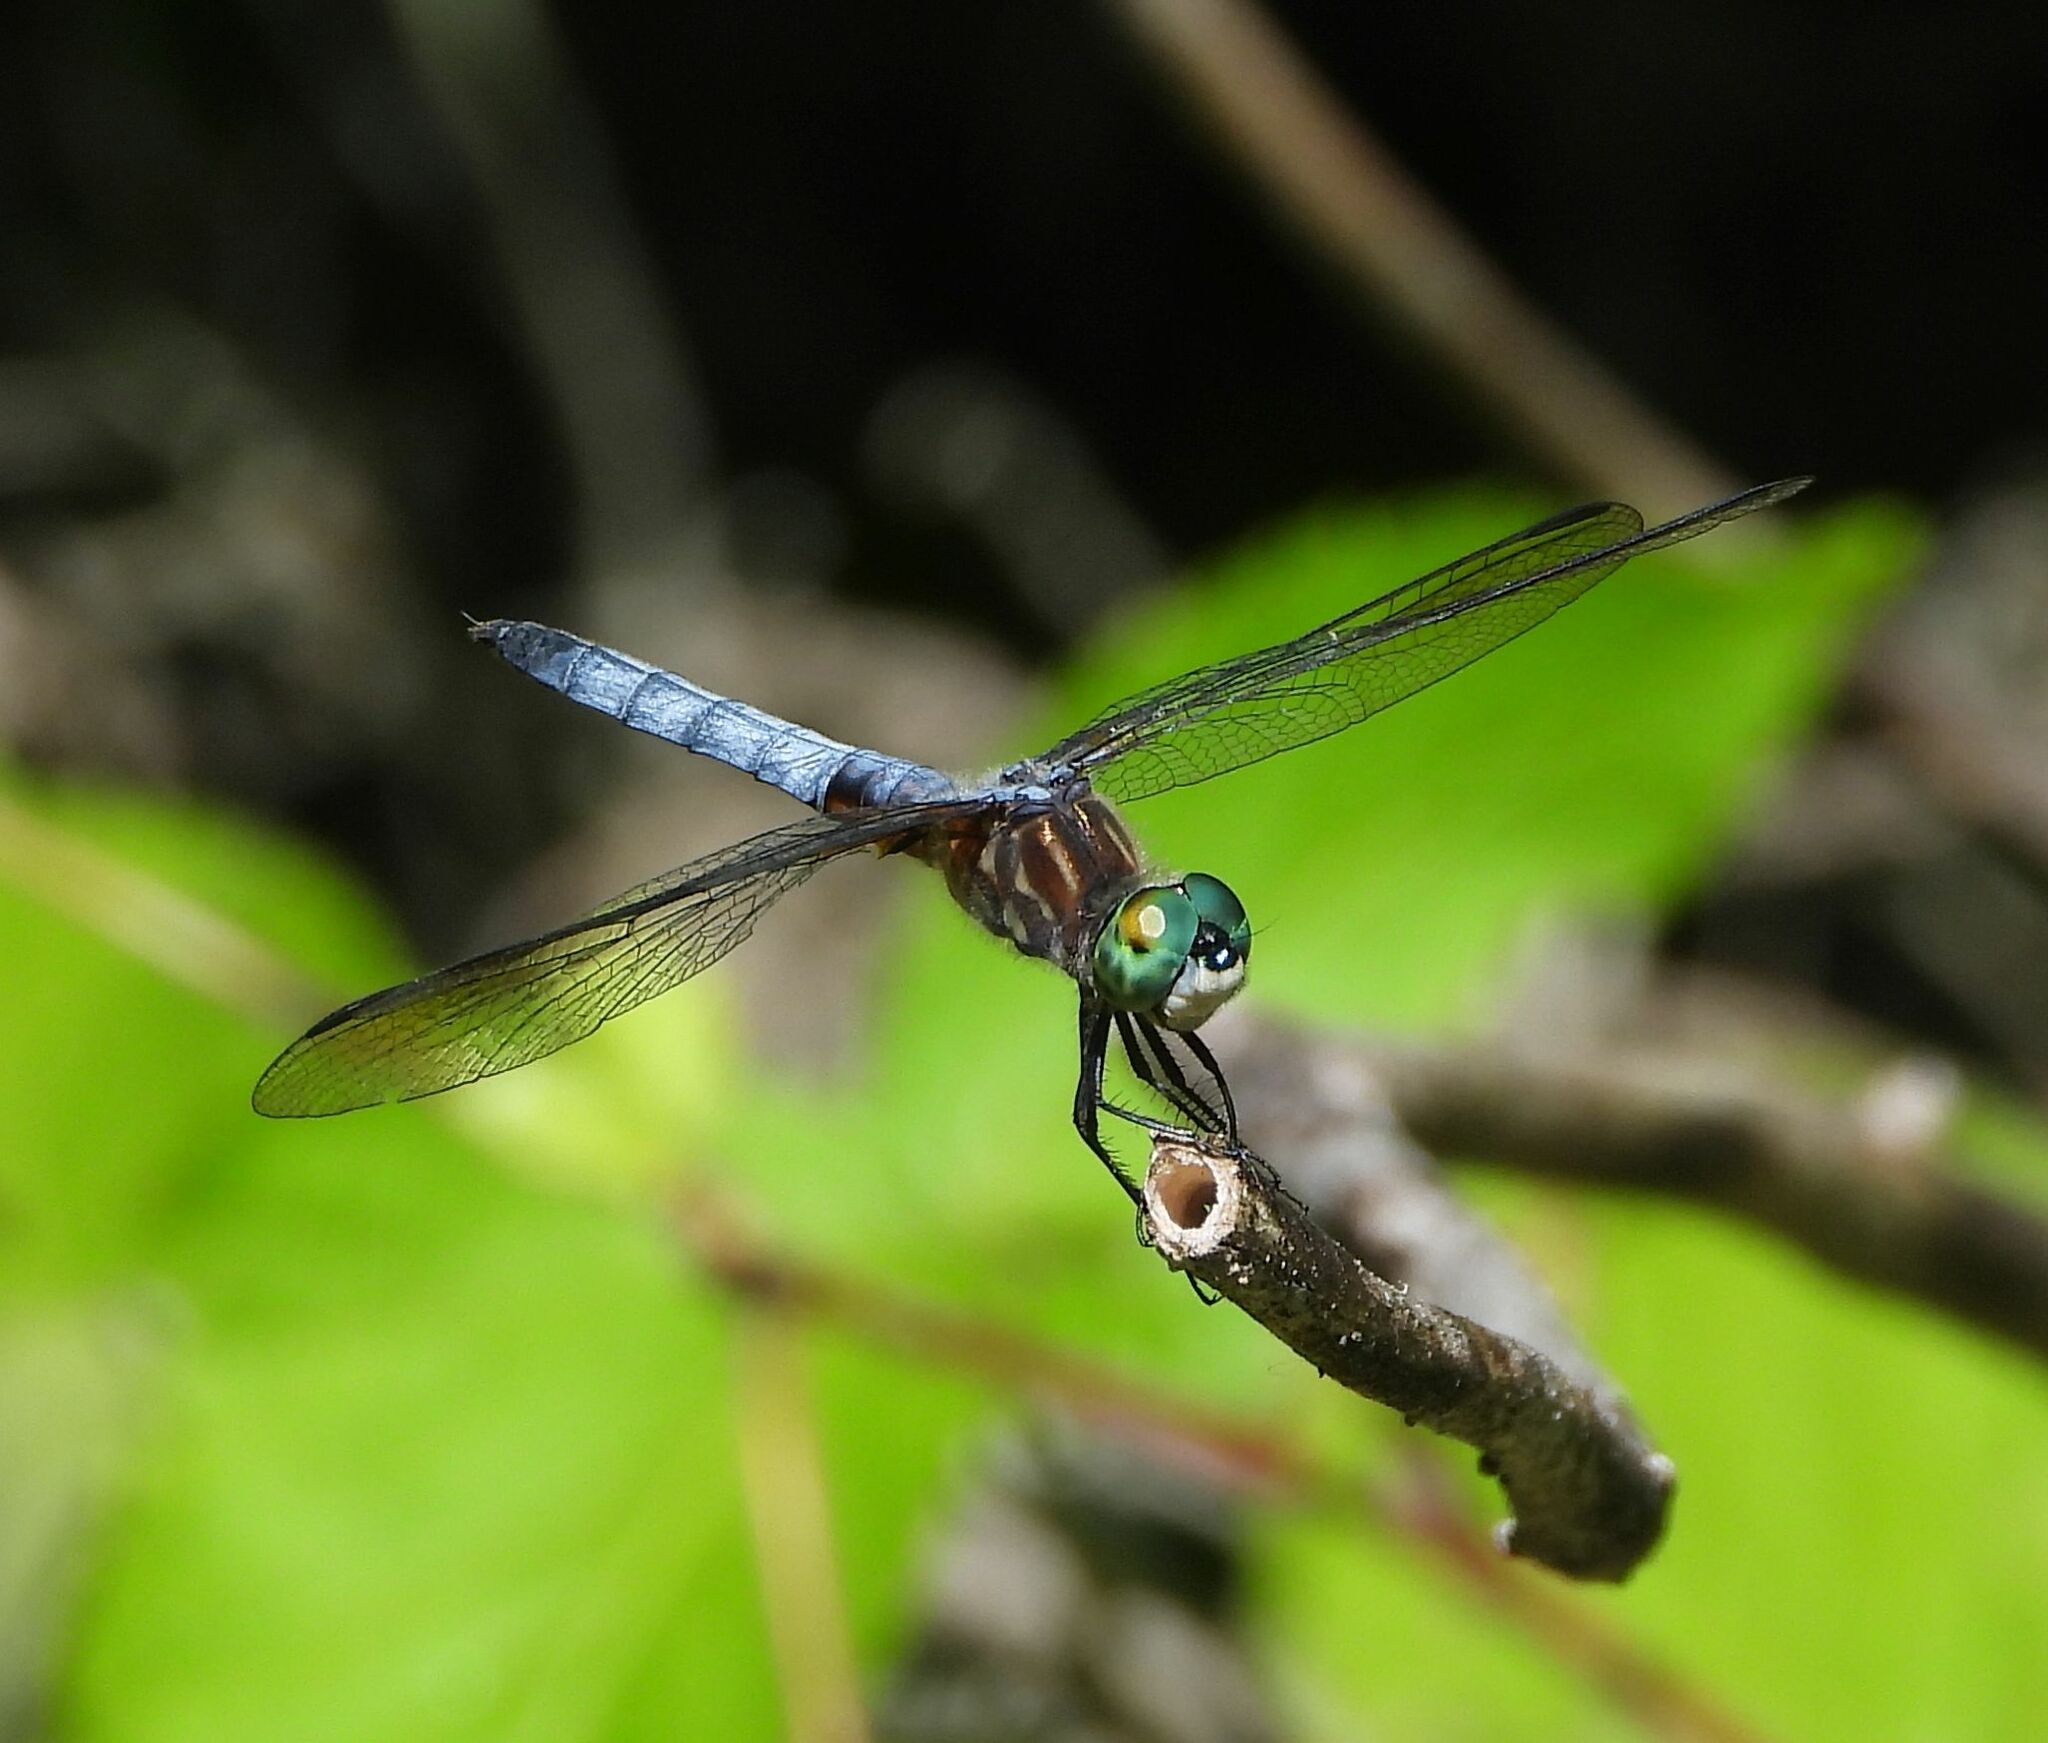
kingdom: Animalia
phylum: Arthropoda
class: Insecta
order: Odonata
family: Libellulidae
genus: Pachydiplax
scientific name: Pachydiplax longipennis
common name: Blue dasher
